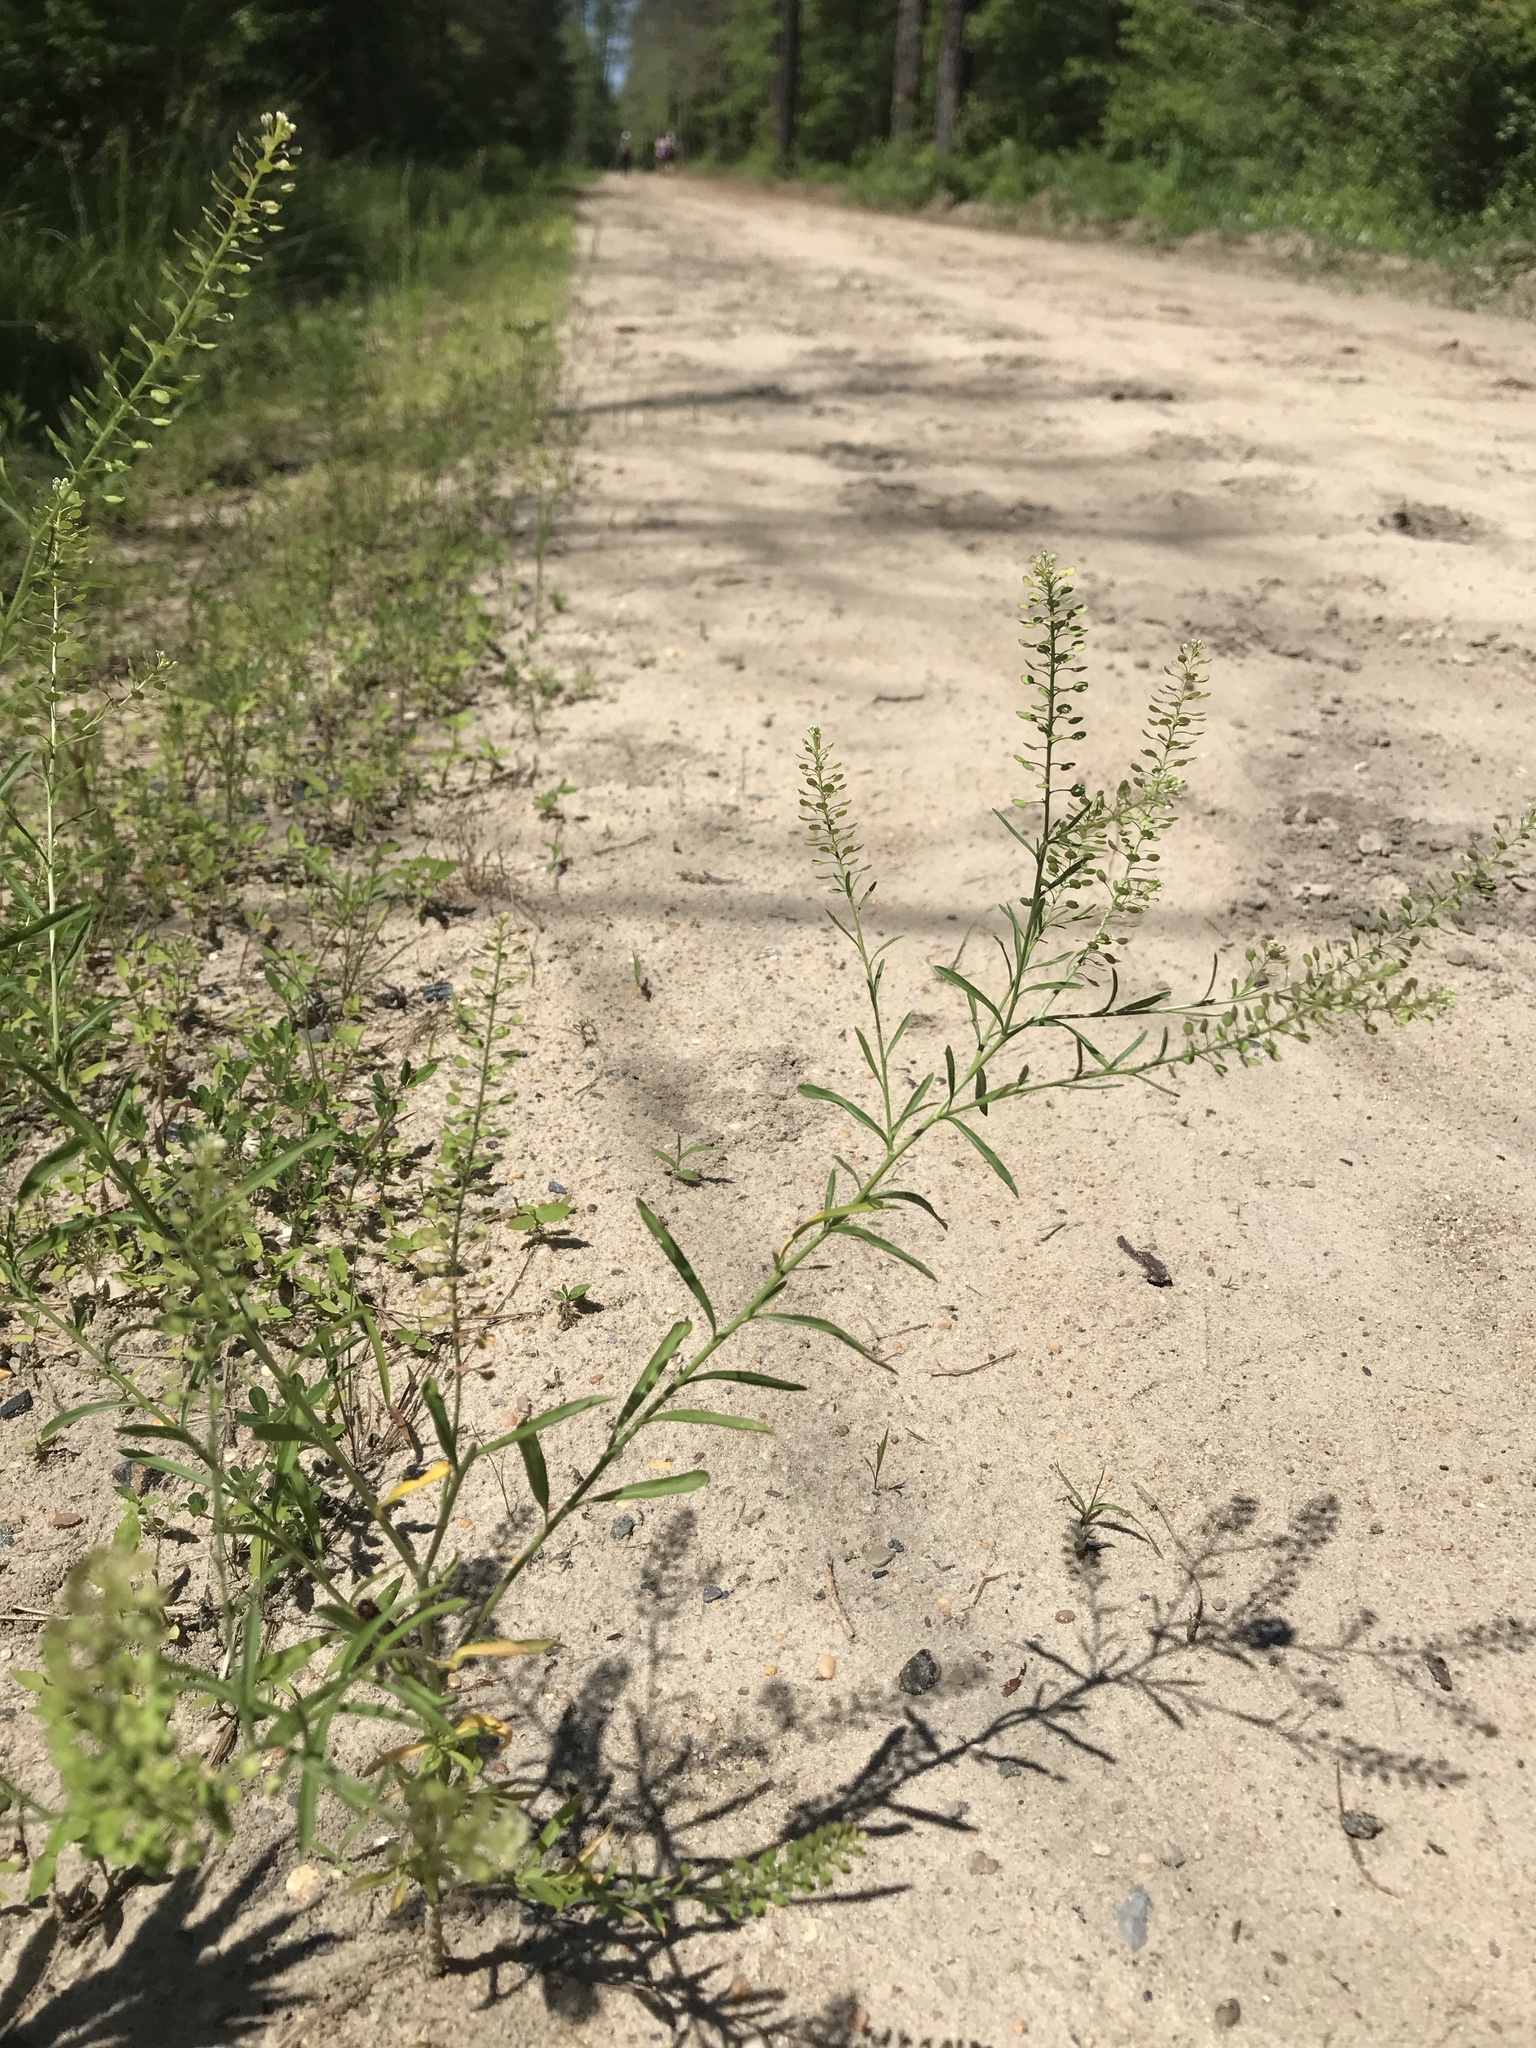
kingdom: Plantae
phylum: Tracheophyta
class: Magnoliopsida
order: Brassicales
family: Brassicaceae
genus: Lepidium
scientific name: Lepidium virginicum
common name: Least pepperwort
